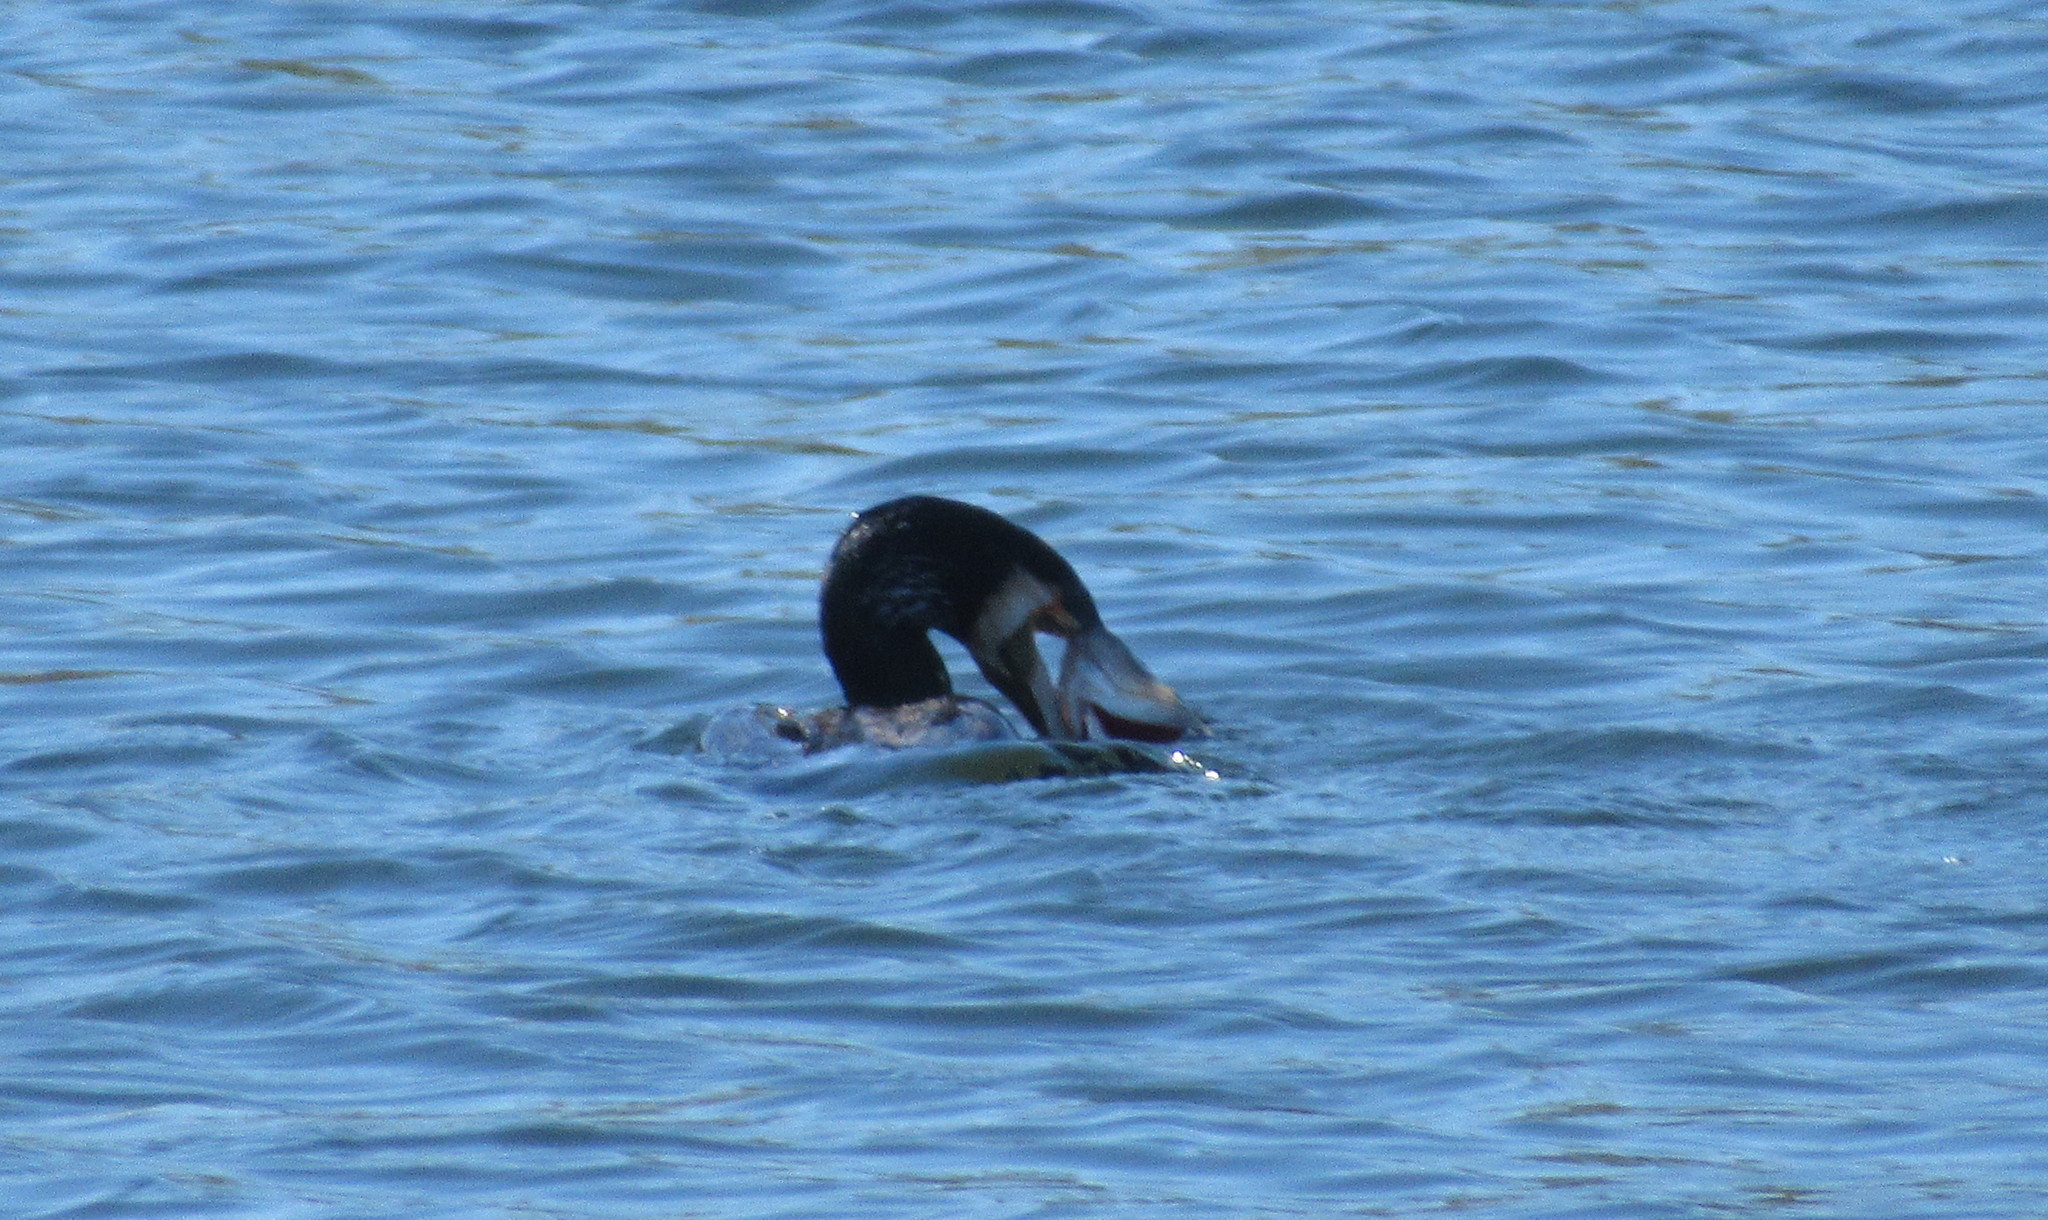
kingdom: Animalia
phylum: Chordata
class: Aves
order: Suliformes
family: Phalacrocoracidae
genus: Phalacrocorax
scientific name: Phalacrocorax carbo
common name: Great cormorant
